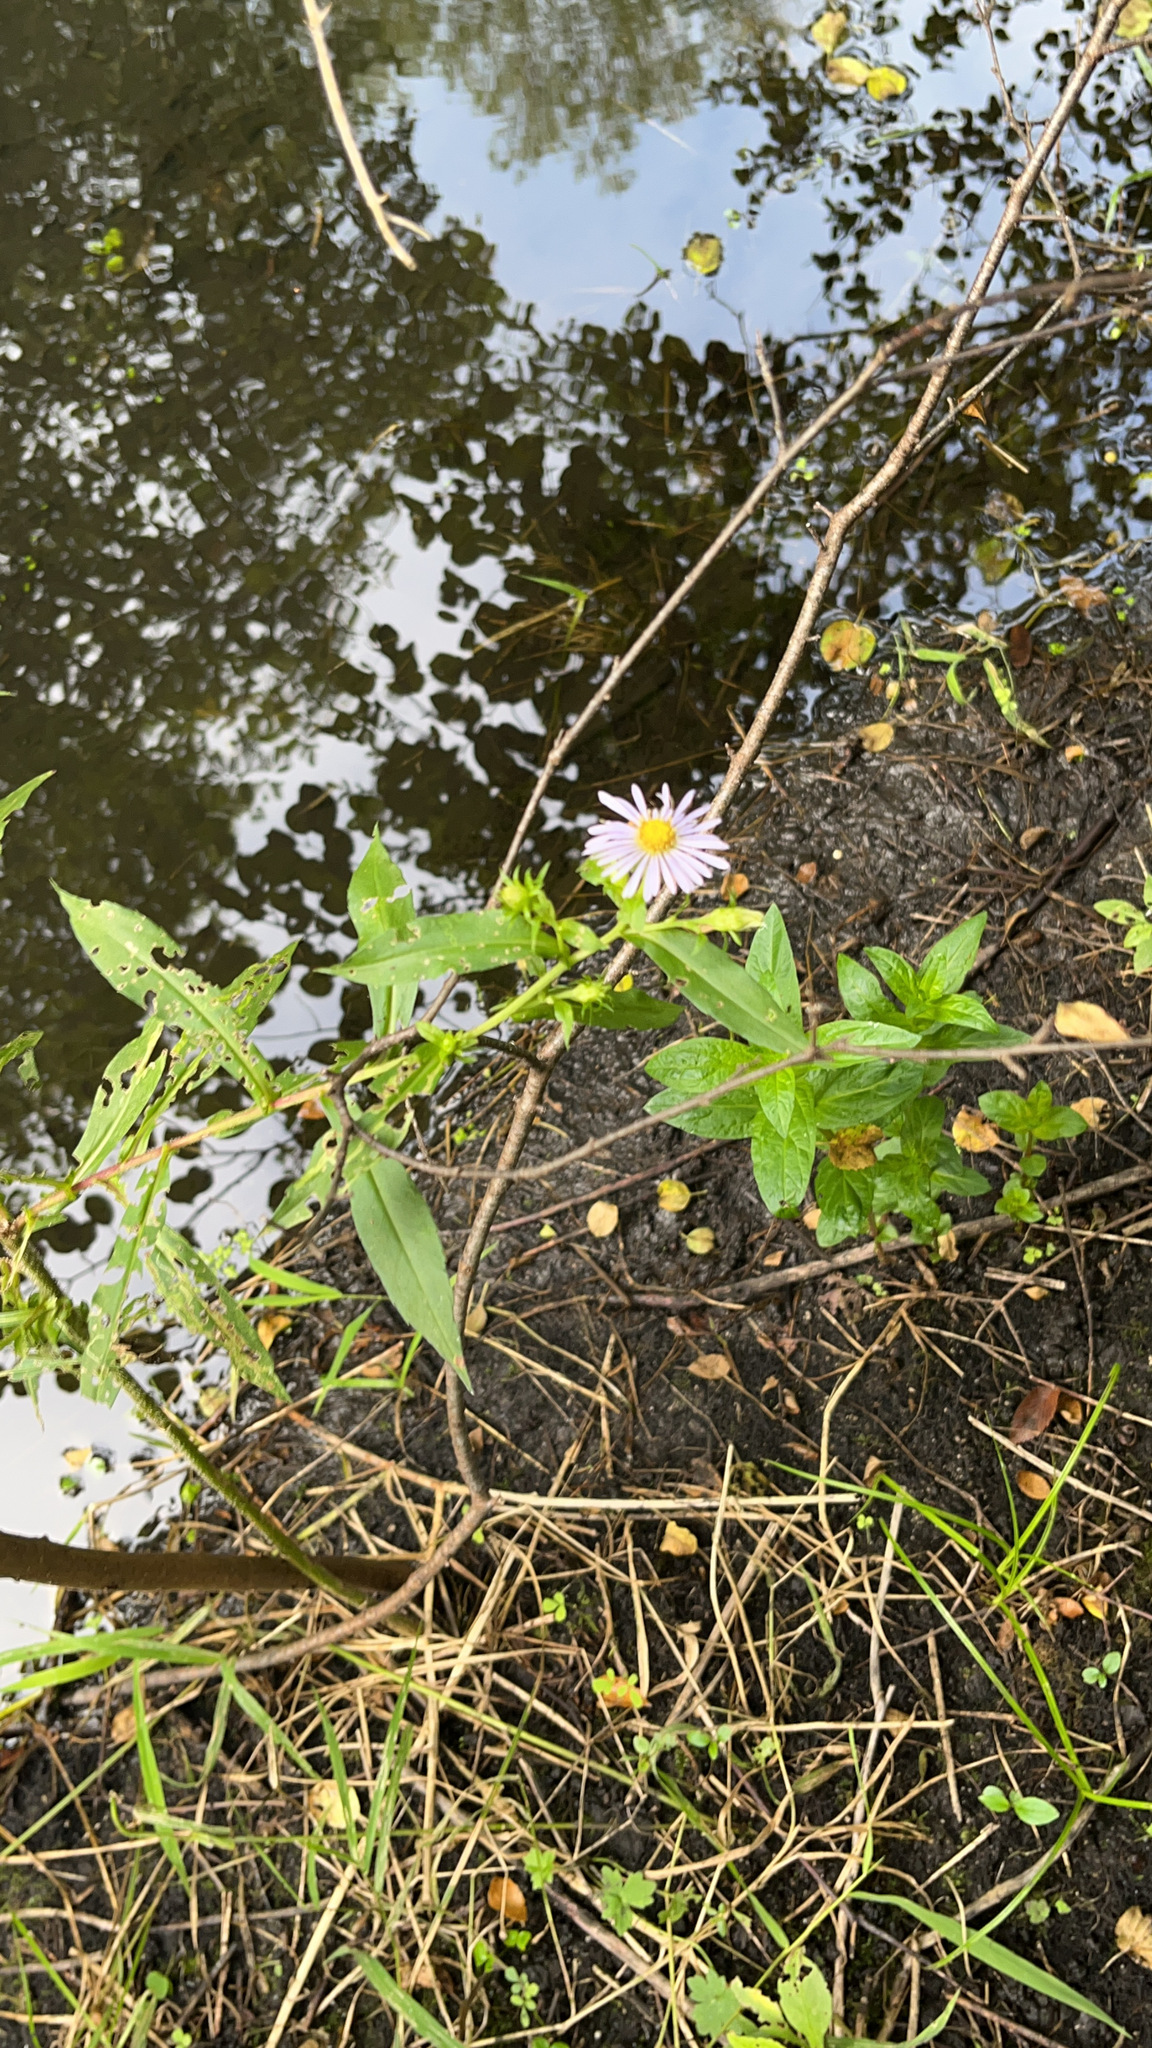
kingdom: Plantae
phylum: Tracheophyta
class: Magnoliopsida
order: Asterales
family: Asteraceae
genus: Symphyotrichum
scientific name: Symphyotrichum firmum
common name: Shining aster
